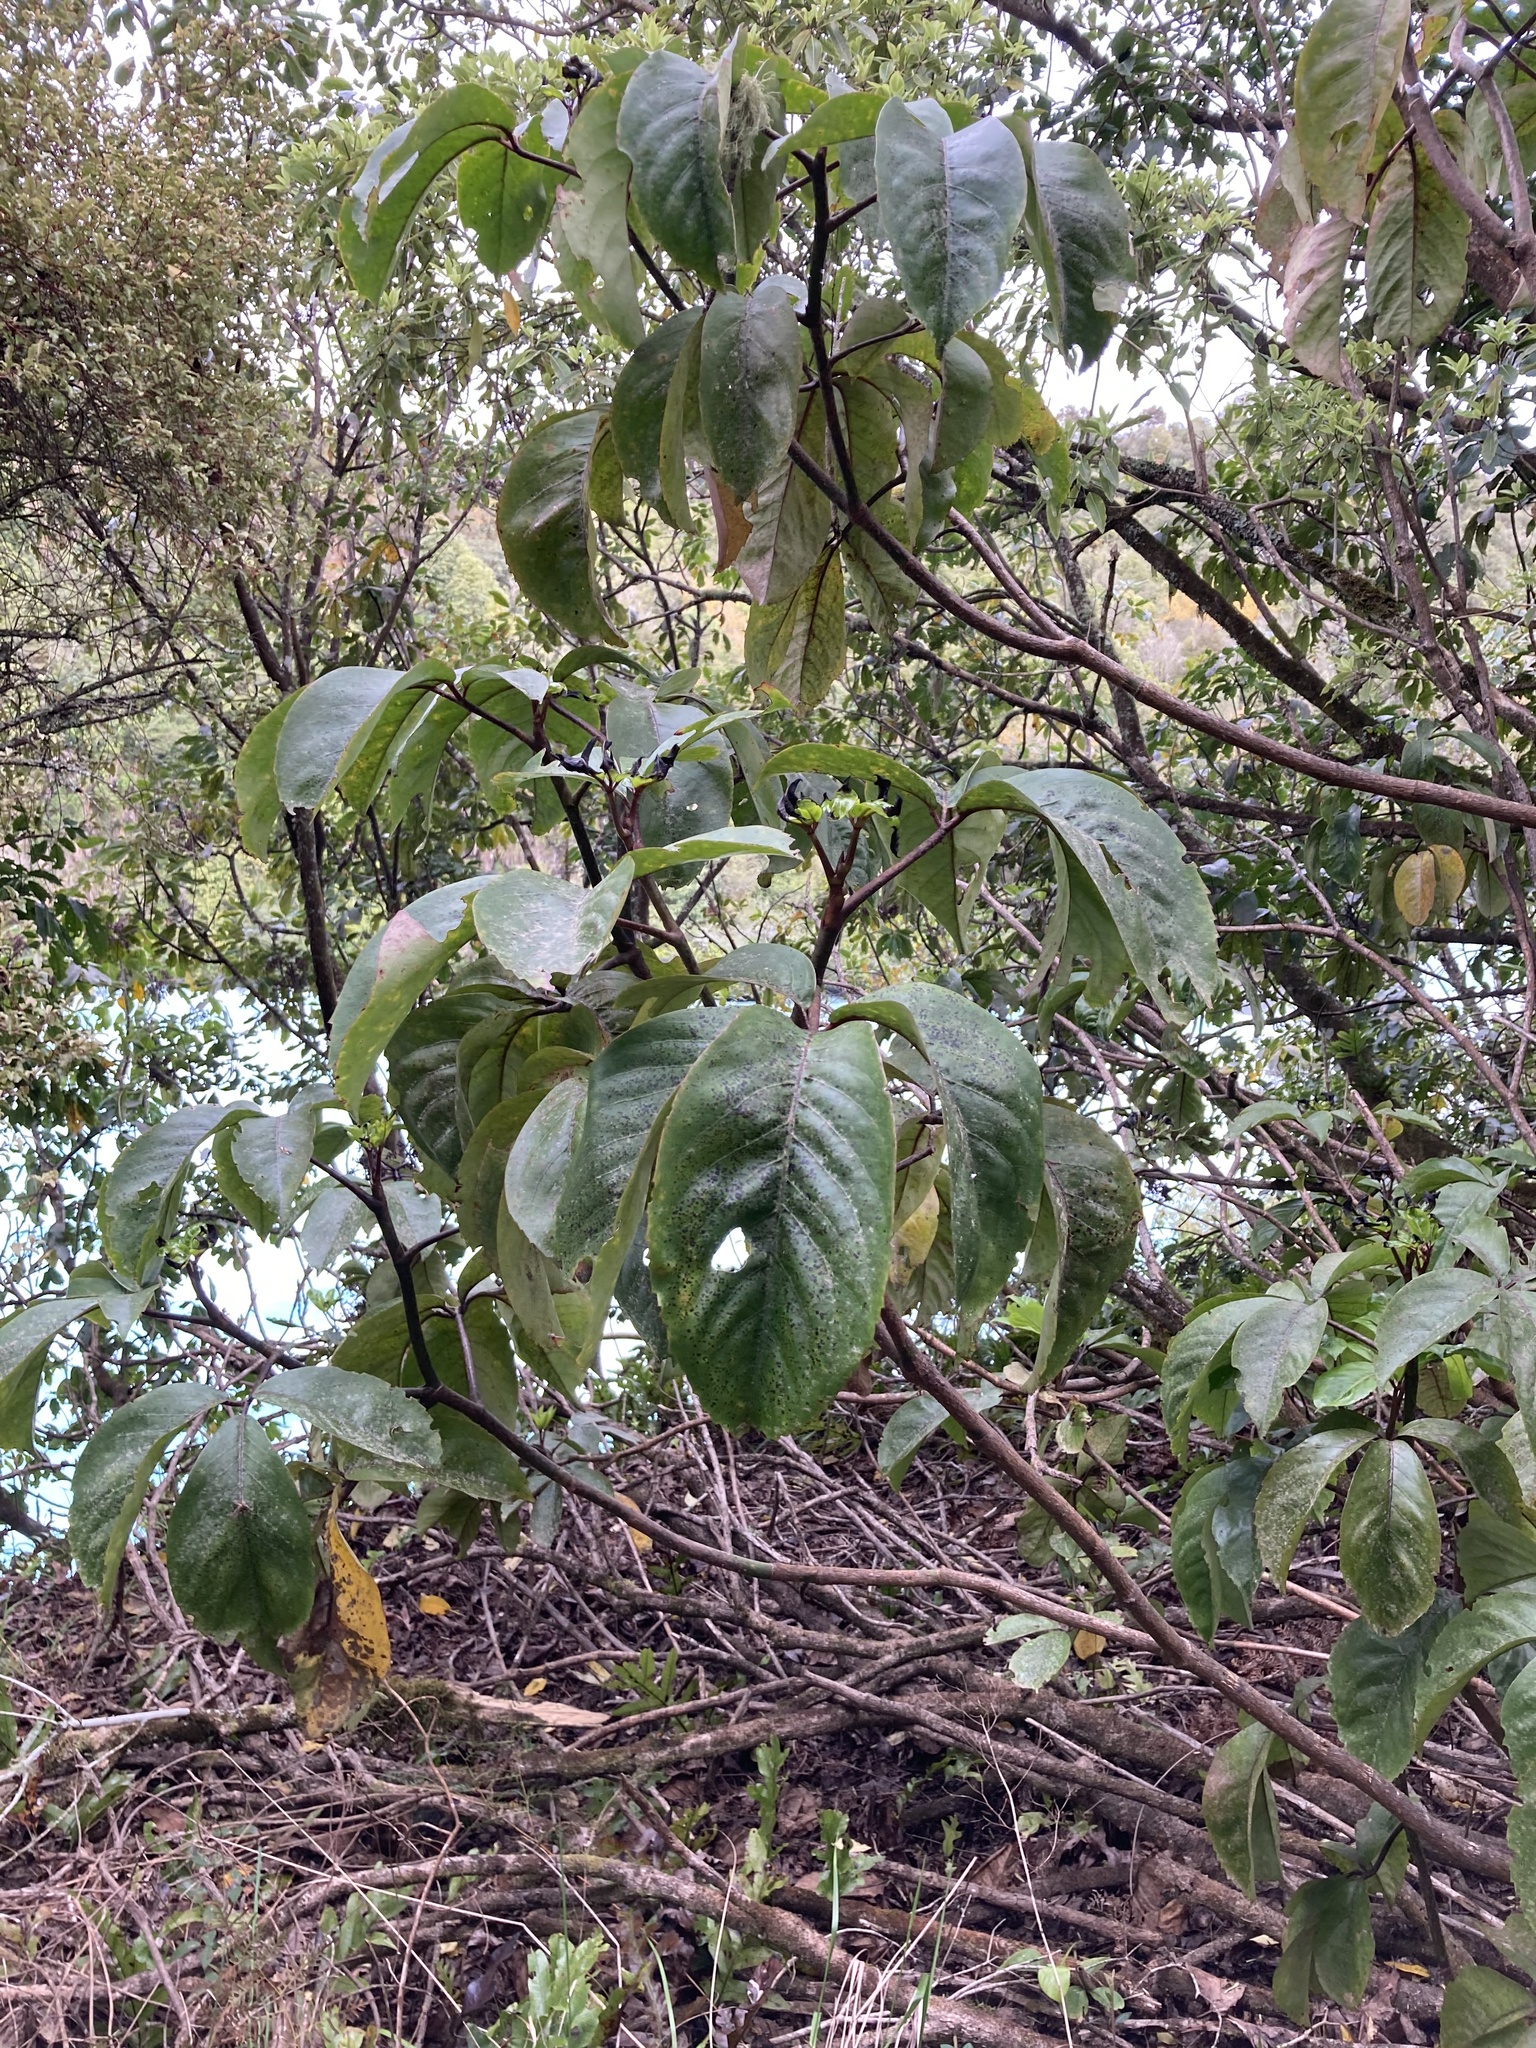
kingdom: Plantae
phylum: Tracheophyta
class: Magnoliopsida
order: Apiales
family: Araliaceae
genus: Neopanax
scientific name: Neopanax laetus
